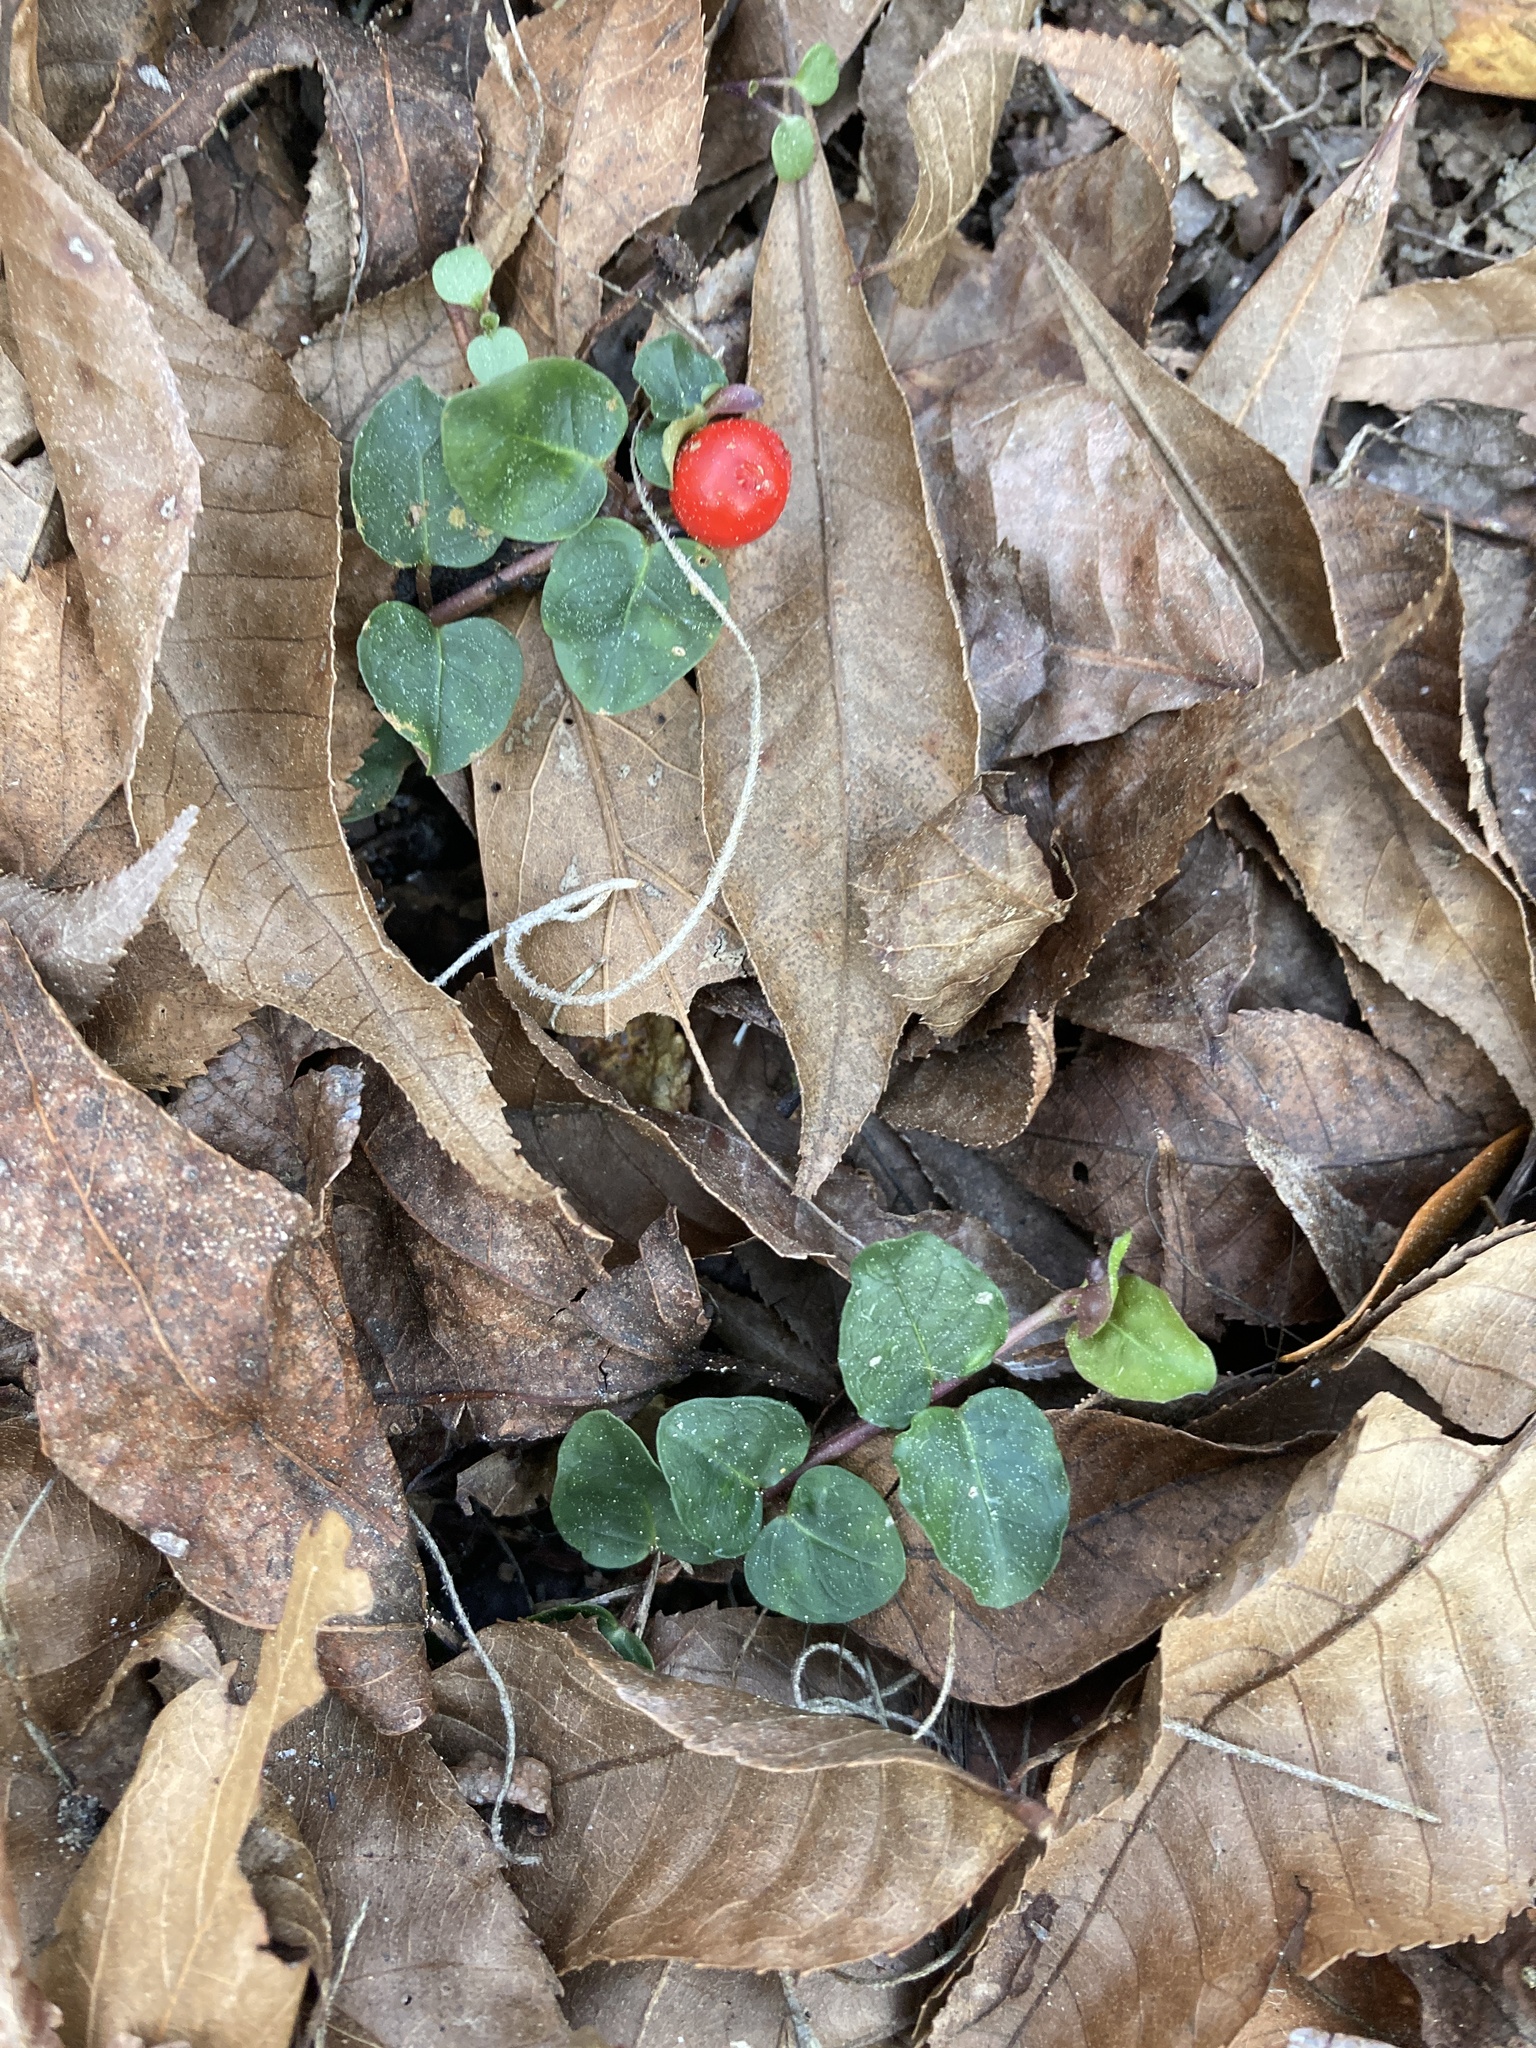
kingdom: Plantae
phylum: Tracheophyta
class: Magnoliopsida
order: Gentianales
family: Rubiaceae
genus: Mitchella
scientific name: Mitchella repens
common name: Partridge-berry
